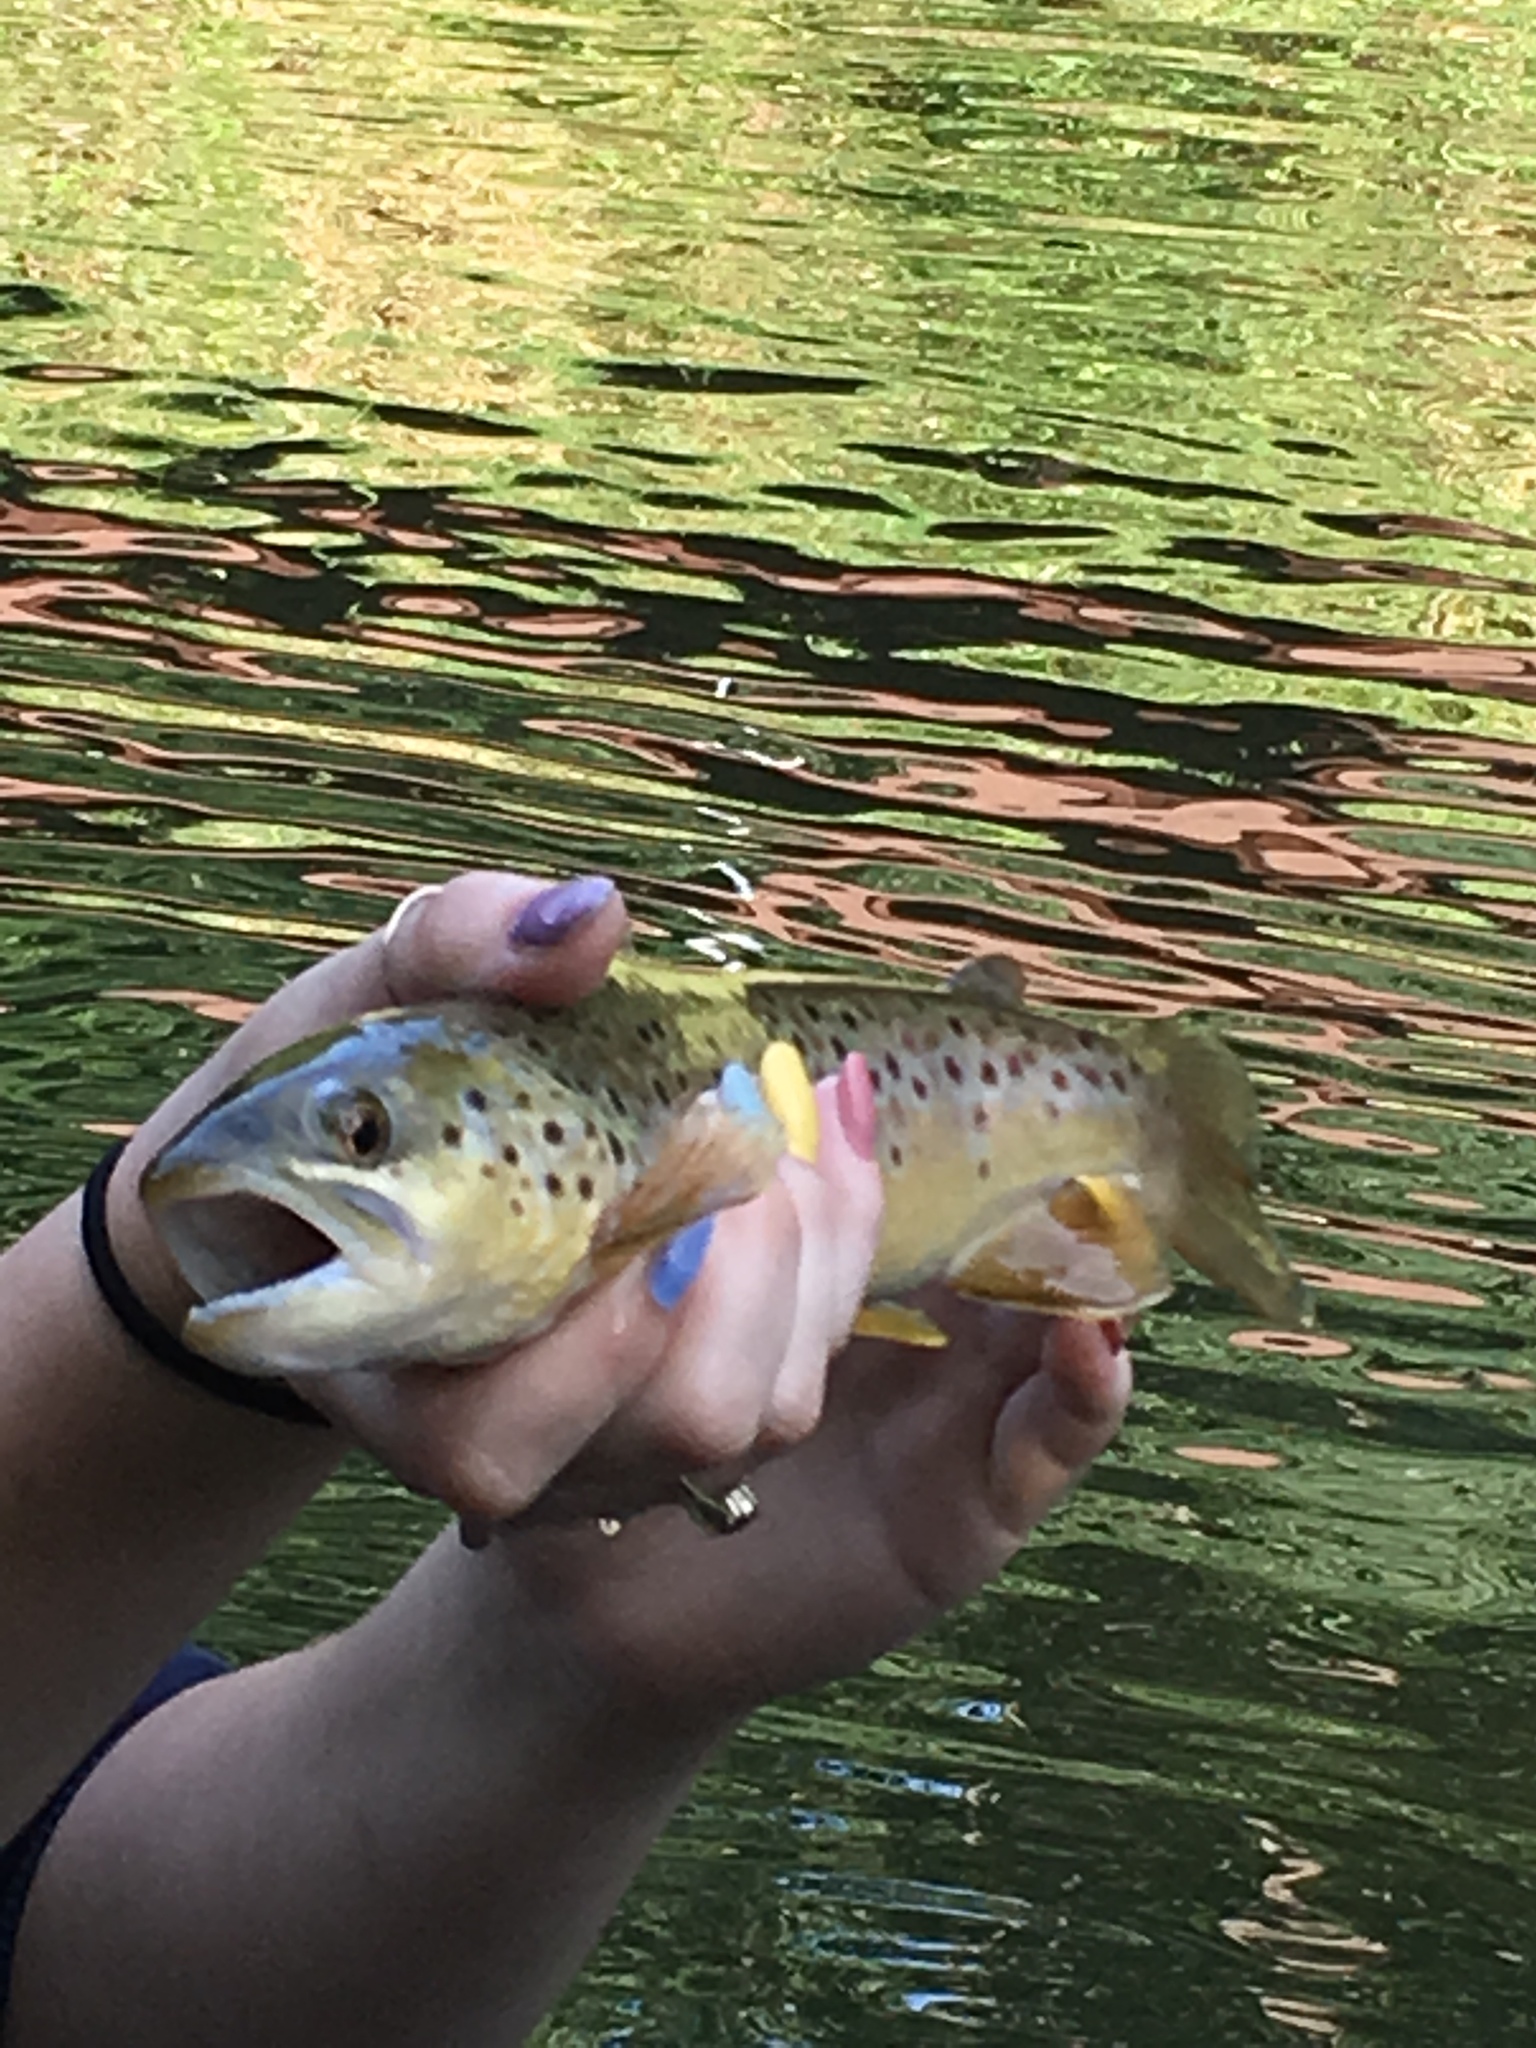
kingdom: Animalia
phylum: Chordata
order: Salmoniformes
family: Salmonidae
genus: Salmo
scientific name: Salmo trutta
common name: Brown trout
